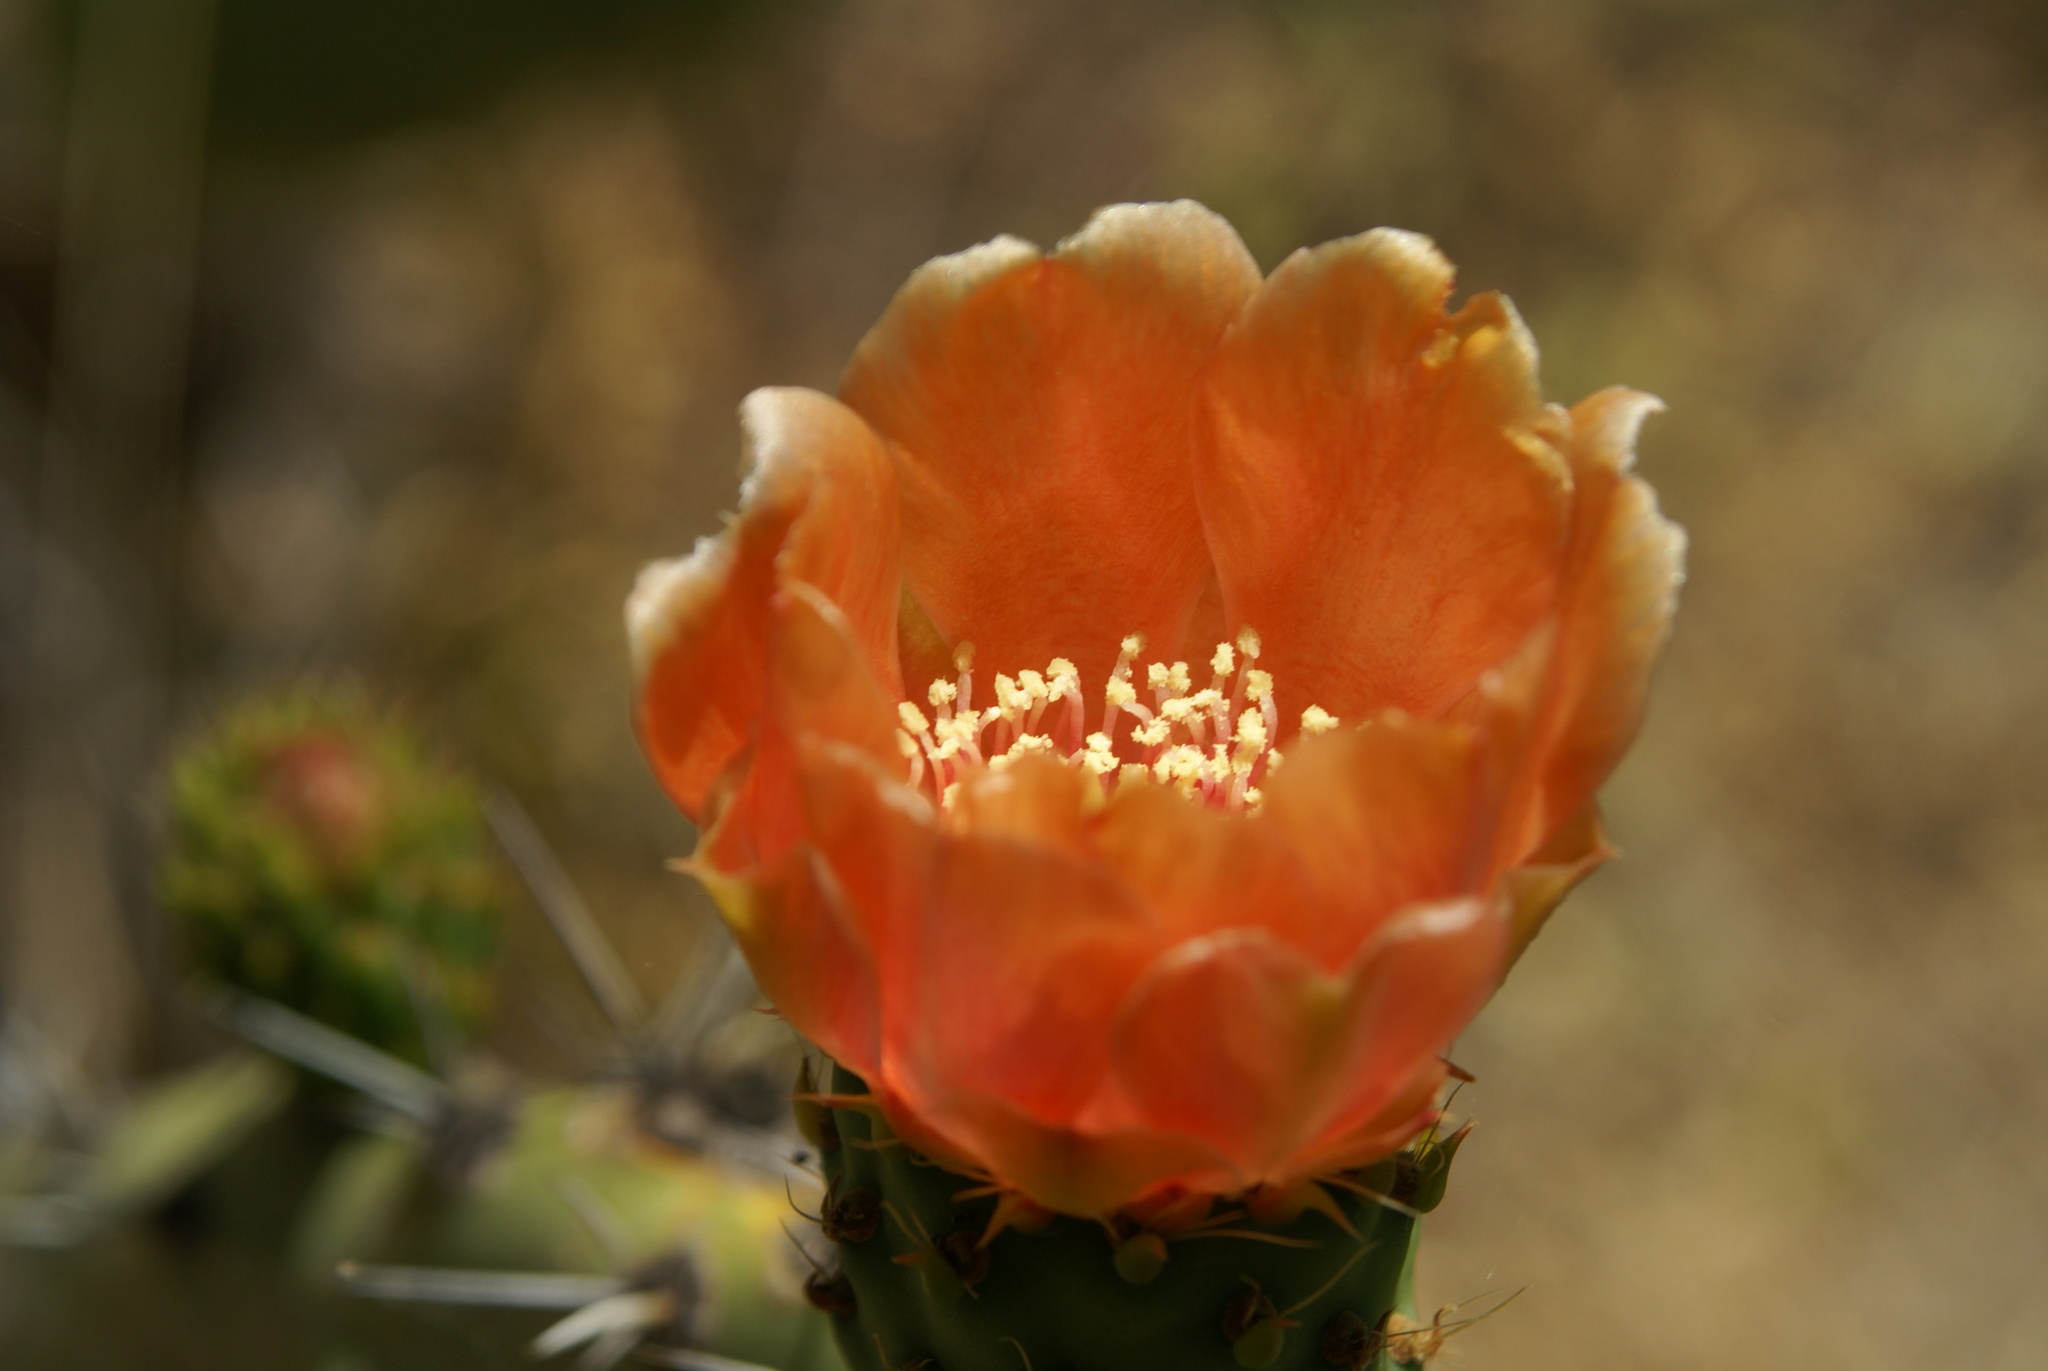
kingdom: Plantae
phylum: Tracheophyta
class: Magnoliopsida
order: Caryophyllales
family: Cactaceae
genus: Opuntia
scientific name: Opuntia ficus-indica
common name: Barbary fig
